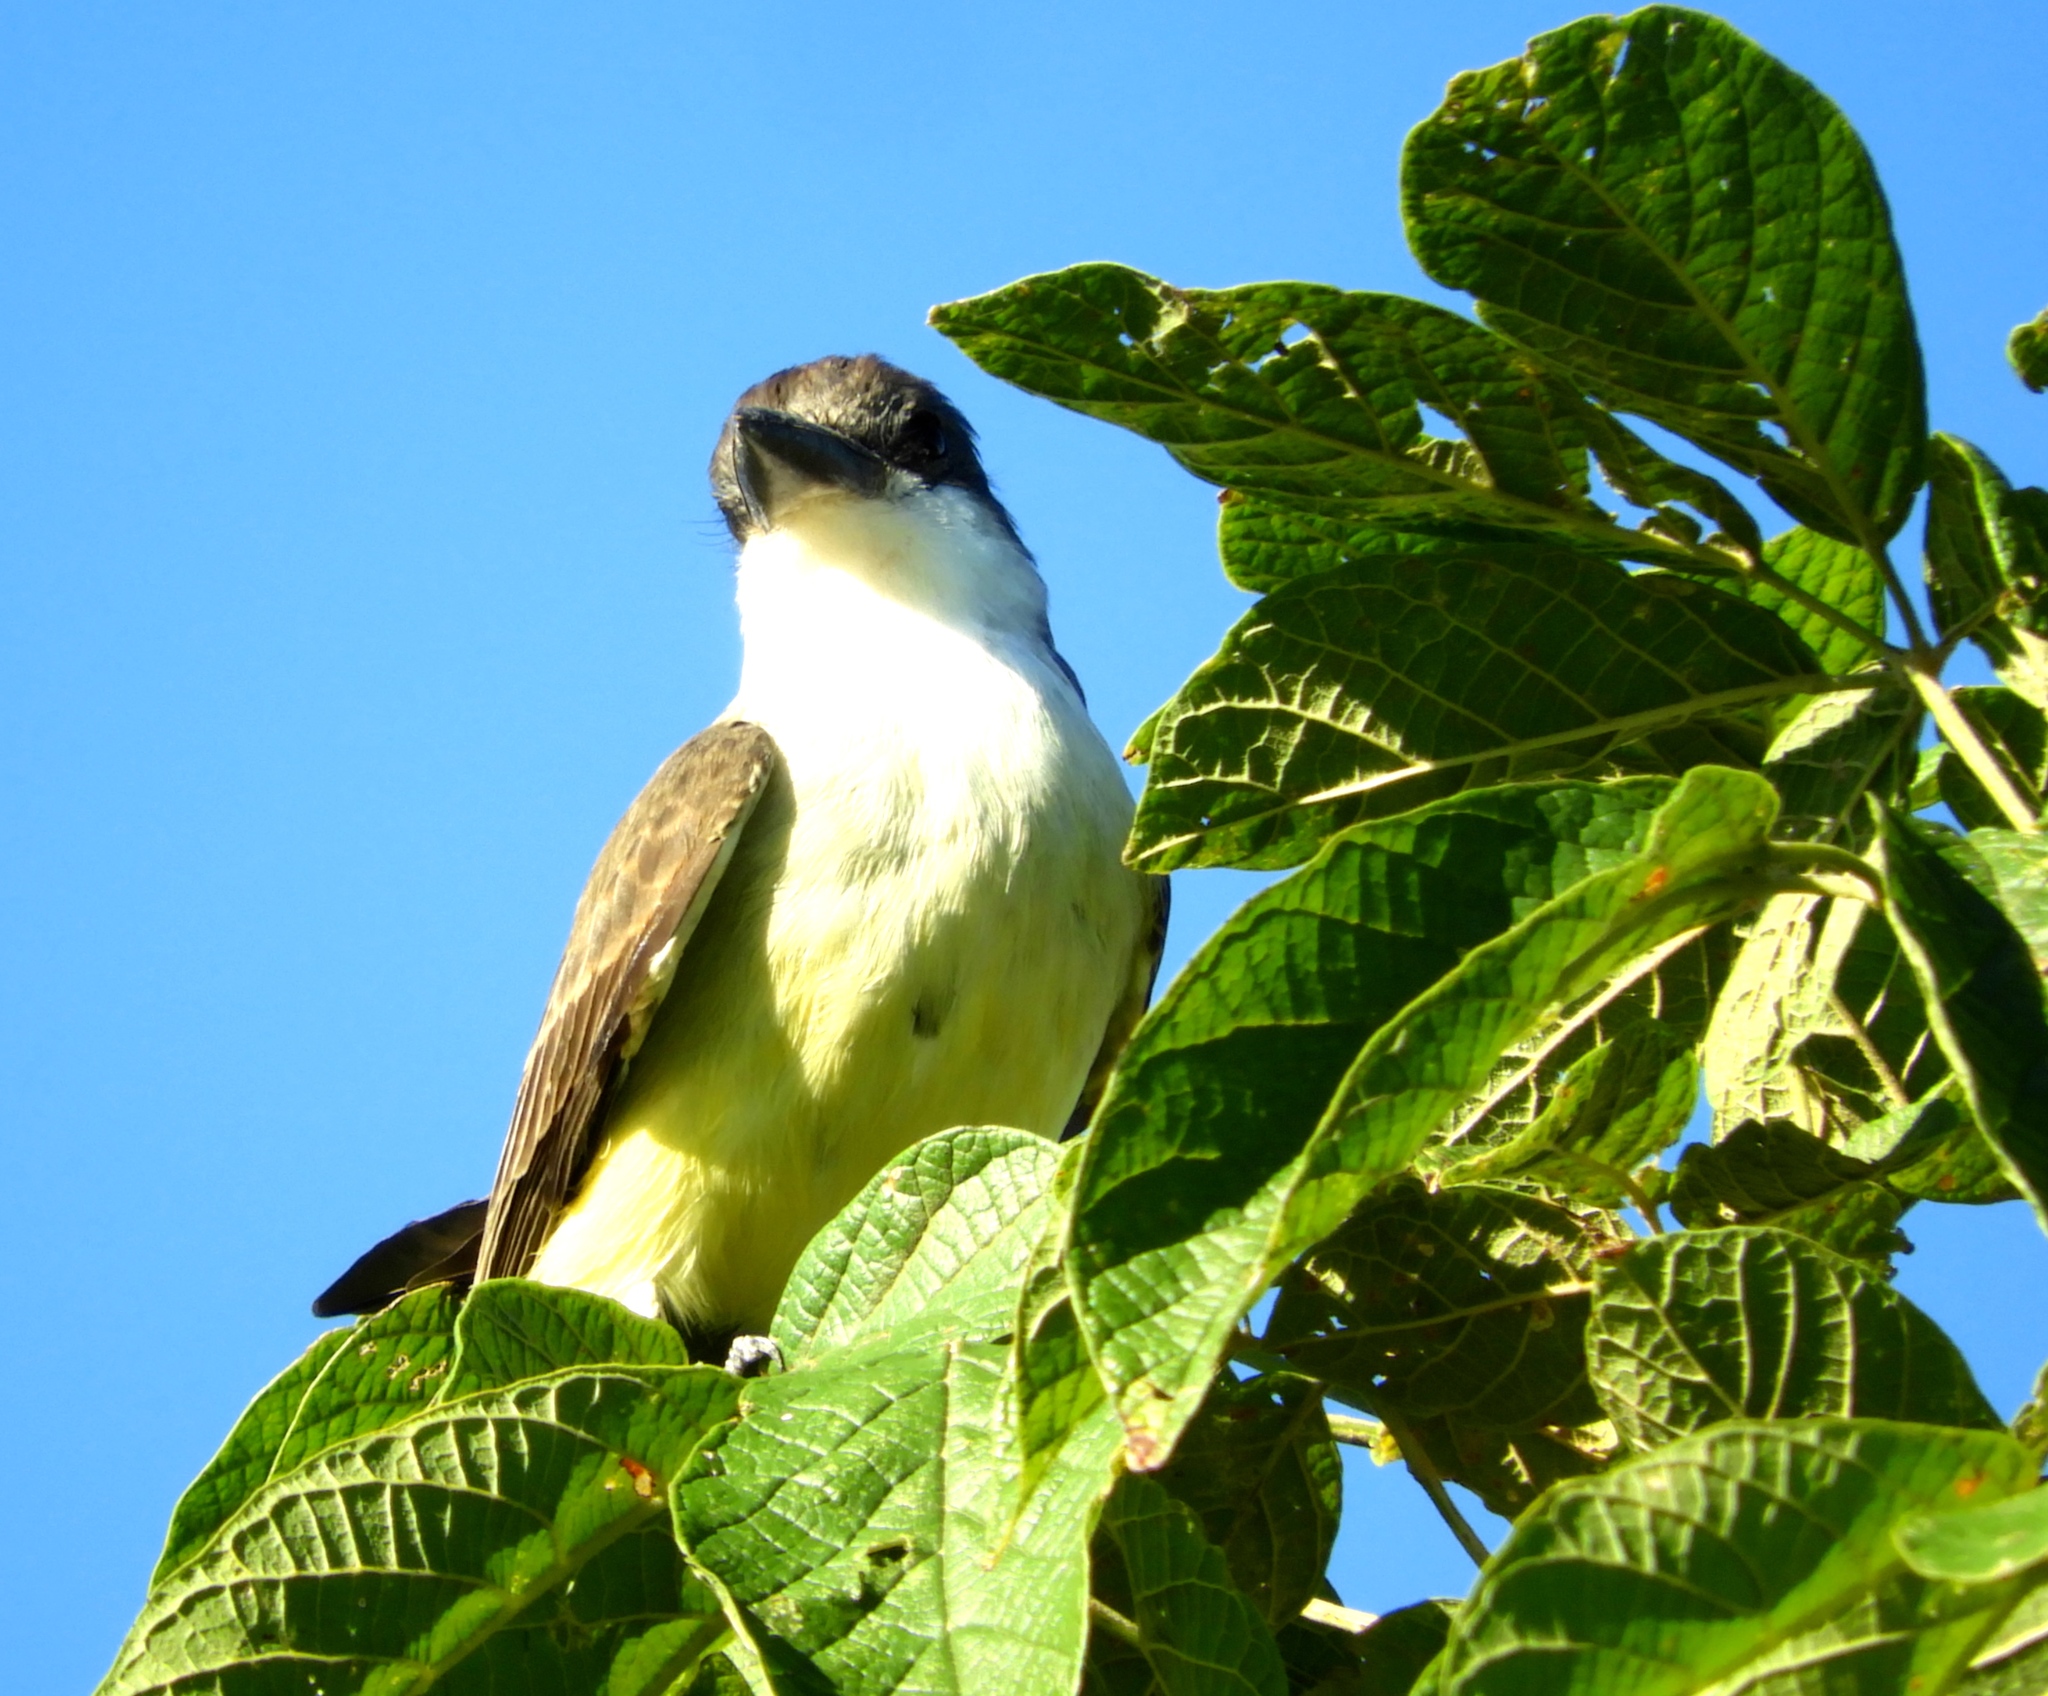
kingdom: Animalia
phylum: Chordata
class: Aves
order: Passeriformes
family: Tyrannidae
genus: Tyrannus
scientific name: Tyrannus crassirostris
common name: Thick-billed kingbird
